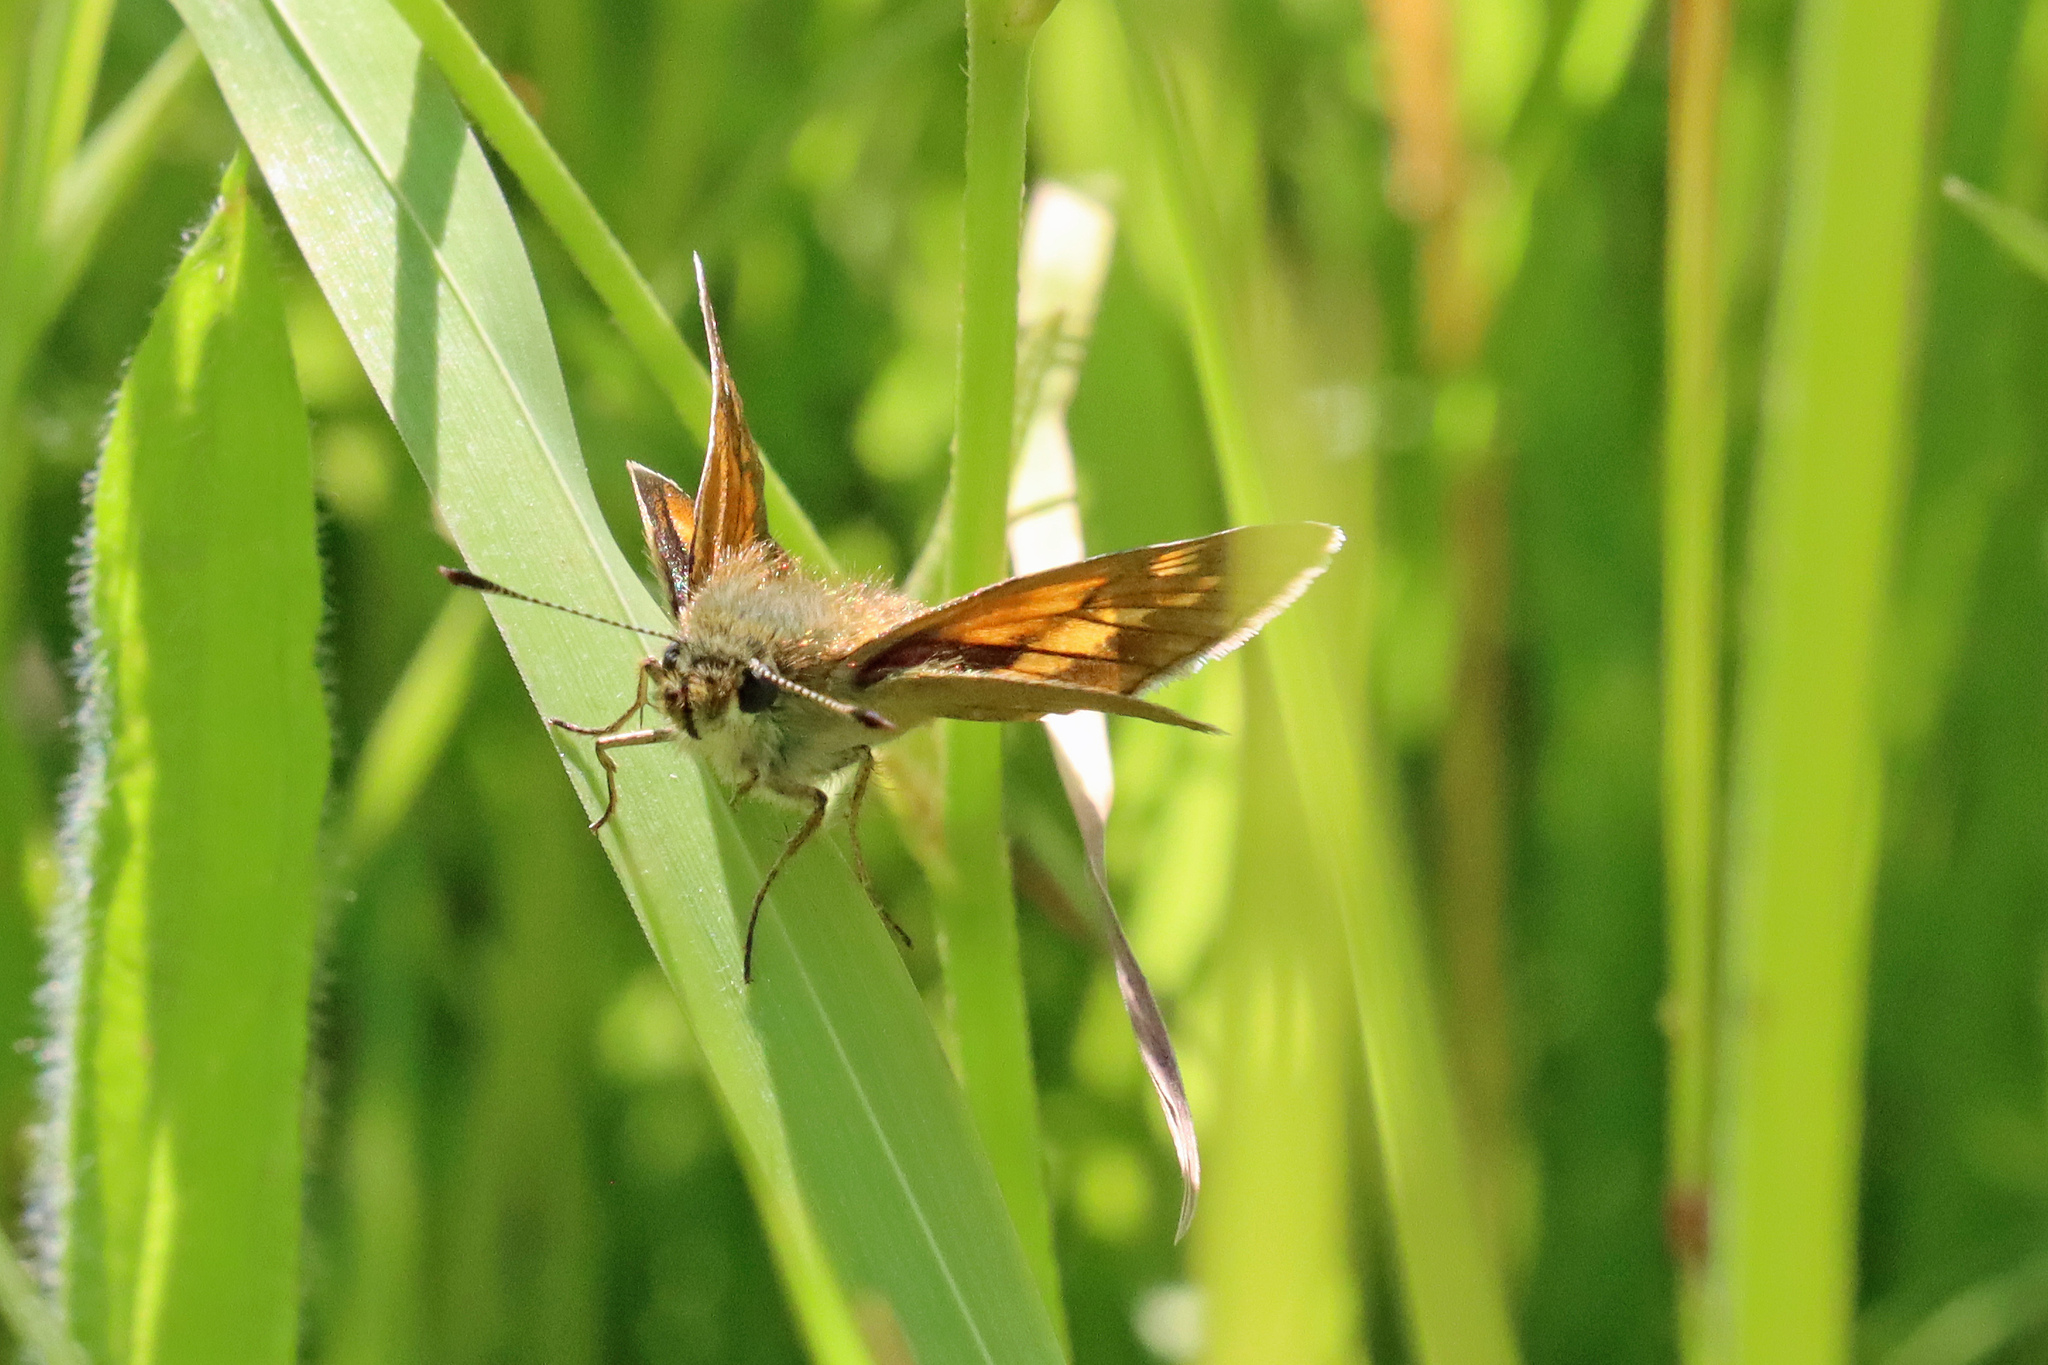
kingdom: Animalia
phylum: Arthropoda
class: Insecta
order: Lepidoptera
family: Hesperiidae
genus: Ochlodes
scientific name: Ochlodes venata
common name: Large skipper
